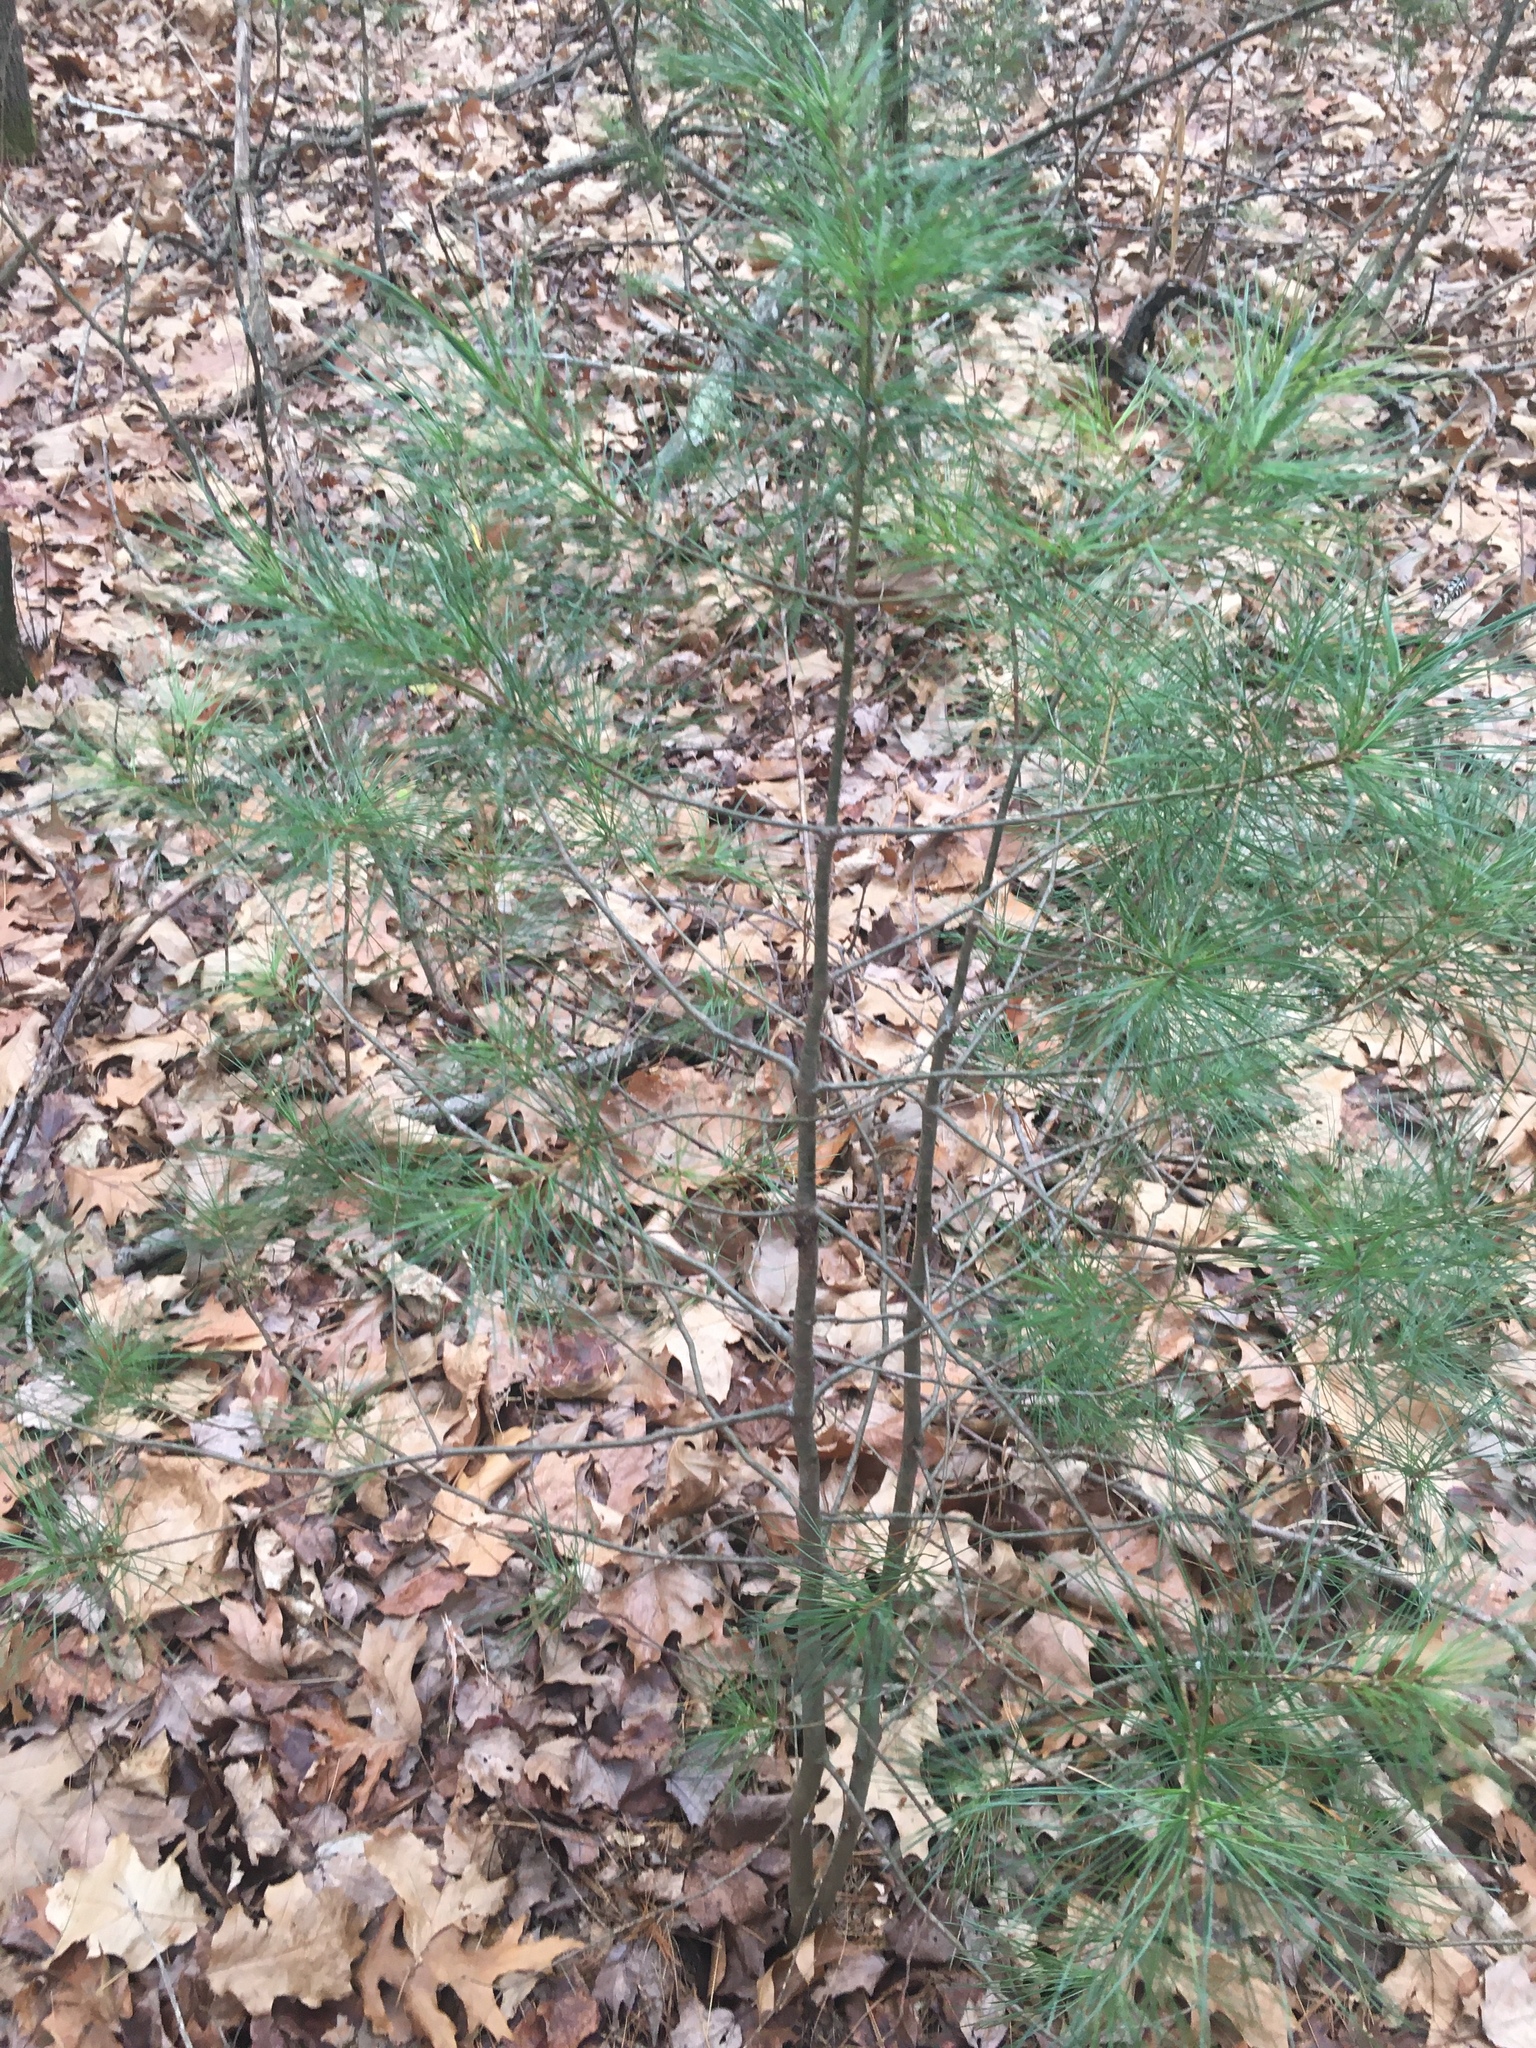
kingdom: Plantae
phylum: Tracheophyta
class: Pinopsida
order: Pinales
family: Pinaceae
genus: Pinus
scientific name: Pinus strobus
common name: Weymouth pine
